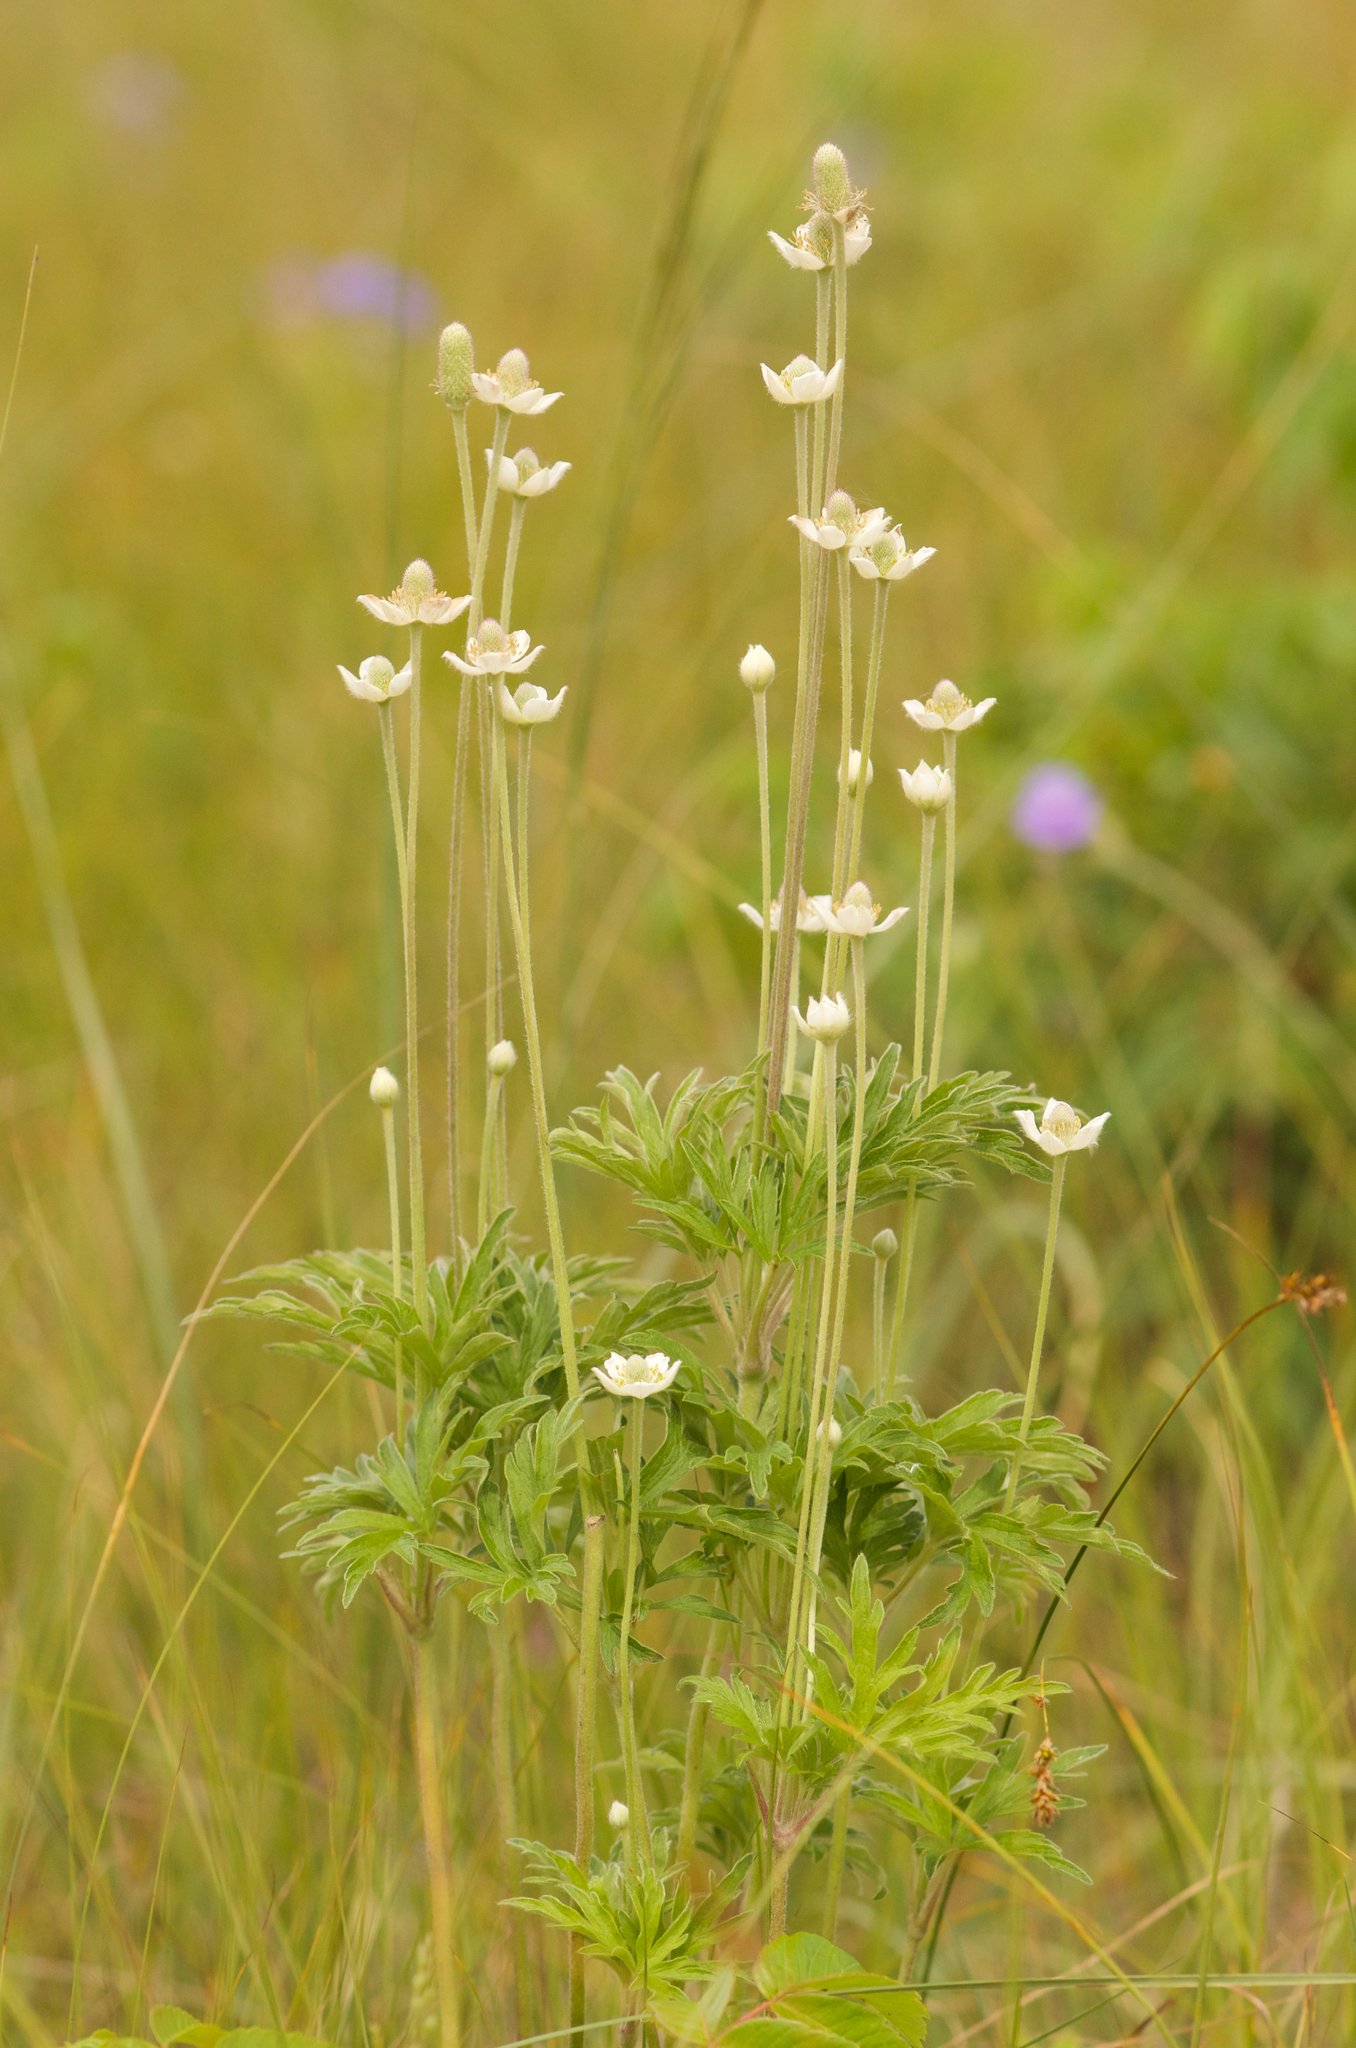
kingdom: Plantae
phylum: Tracheophyta
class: Magnoliopsida
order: Ranunculales
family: Ranunculaceae
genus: Anemone
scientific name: Anemone cylindrica
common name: Candle anemone
